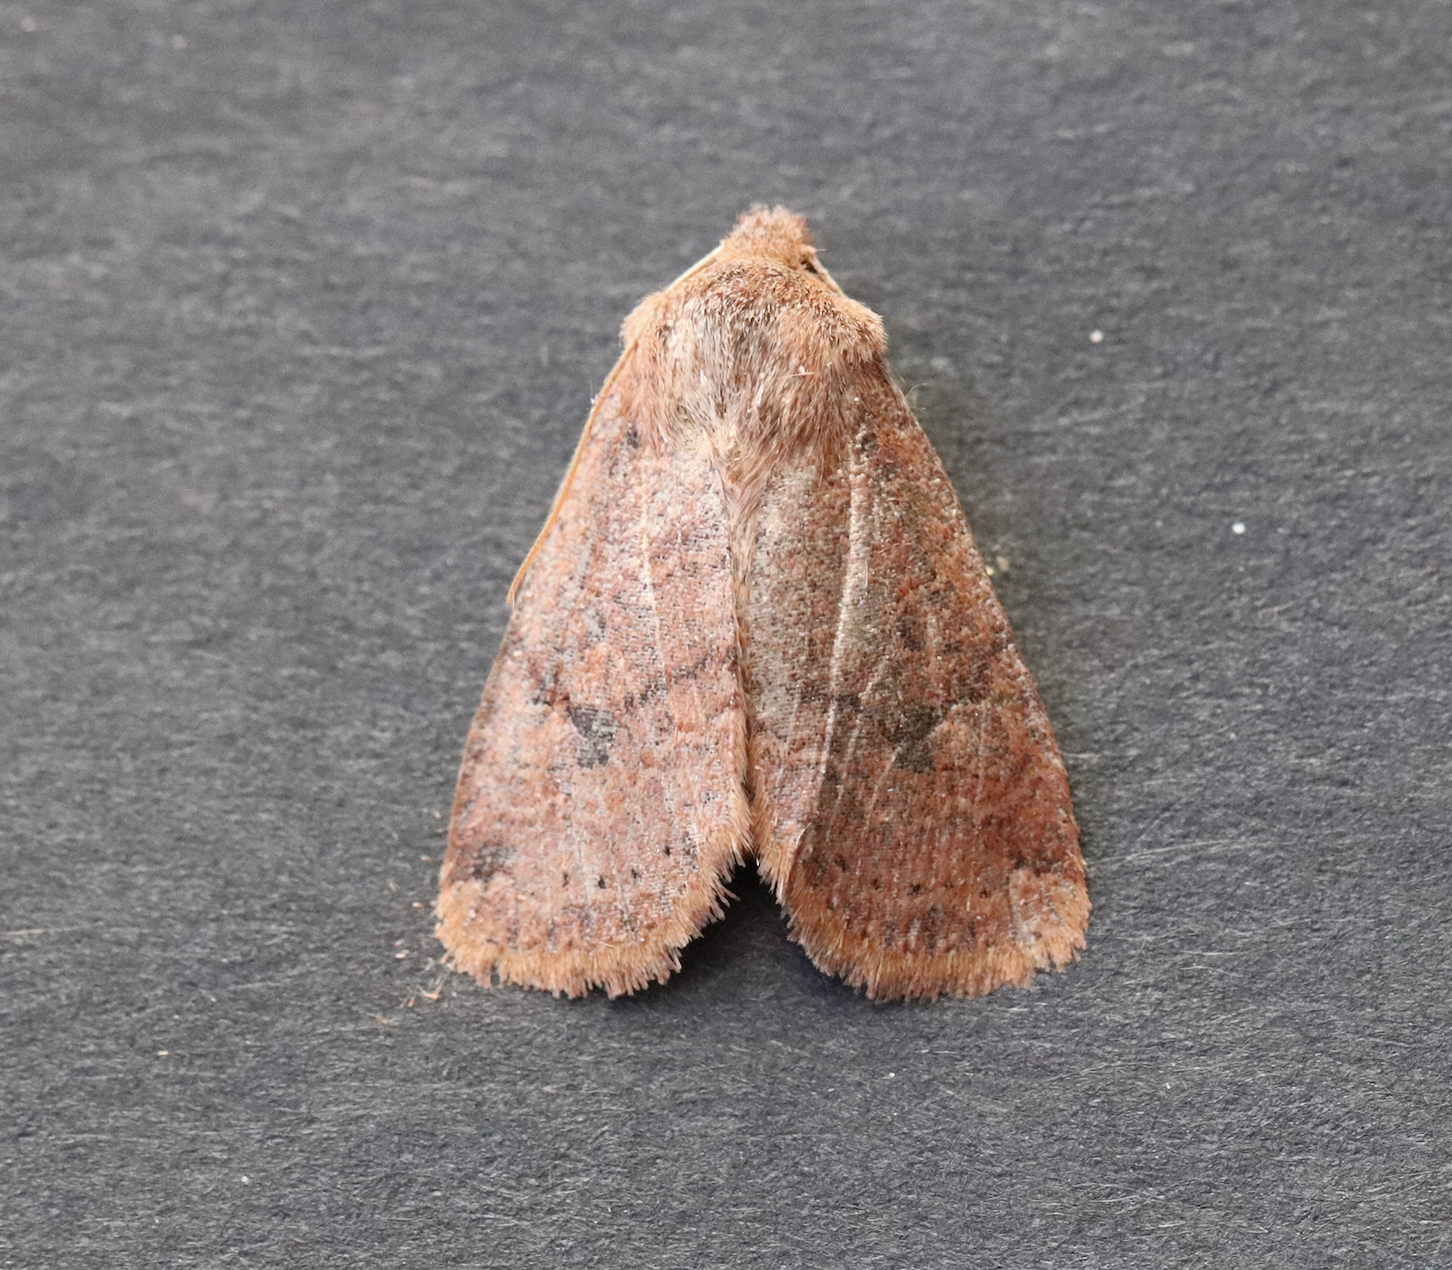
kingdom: Animalia
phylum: Arthropoda
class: Insecta
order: Lepidoptera
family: Noctuidae
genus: Conistra
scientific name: Conistra vaccinii
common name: Chestnut
